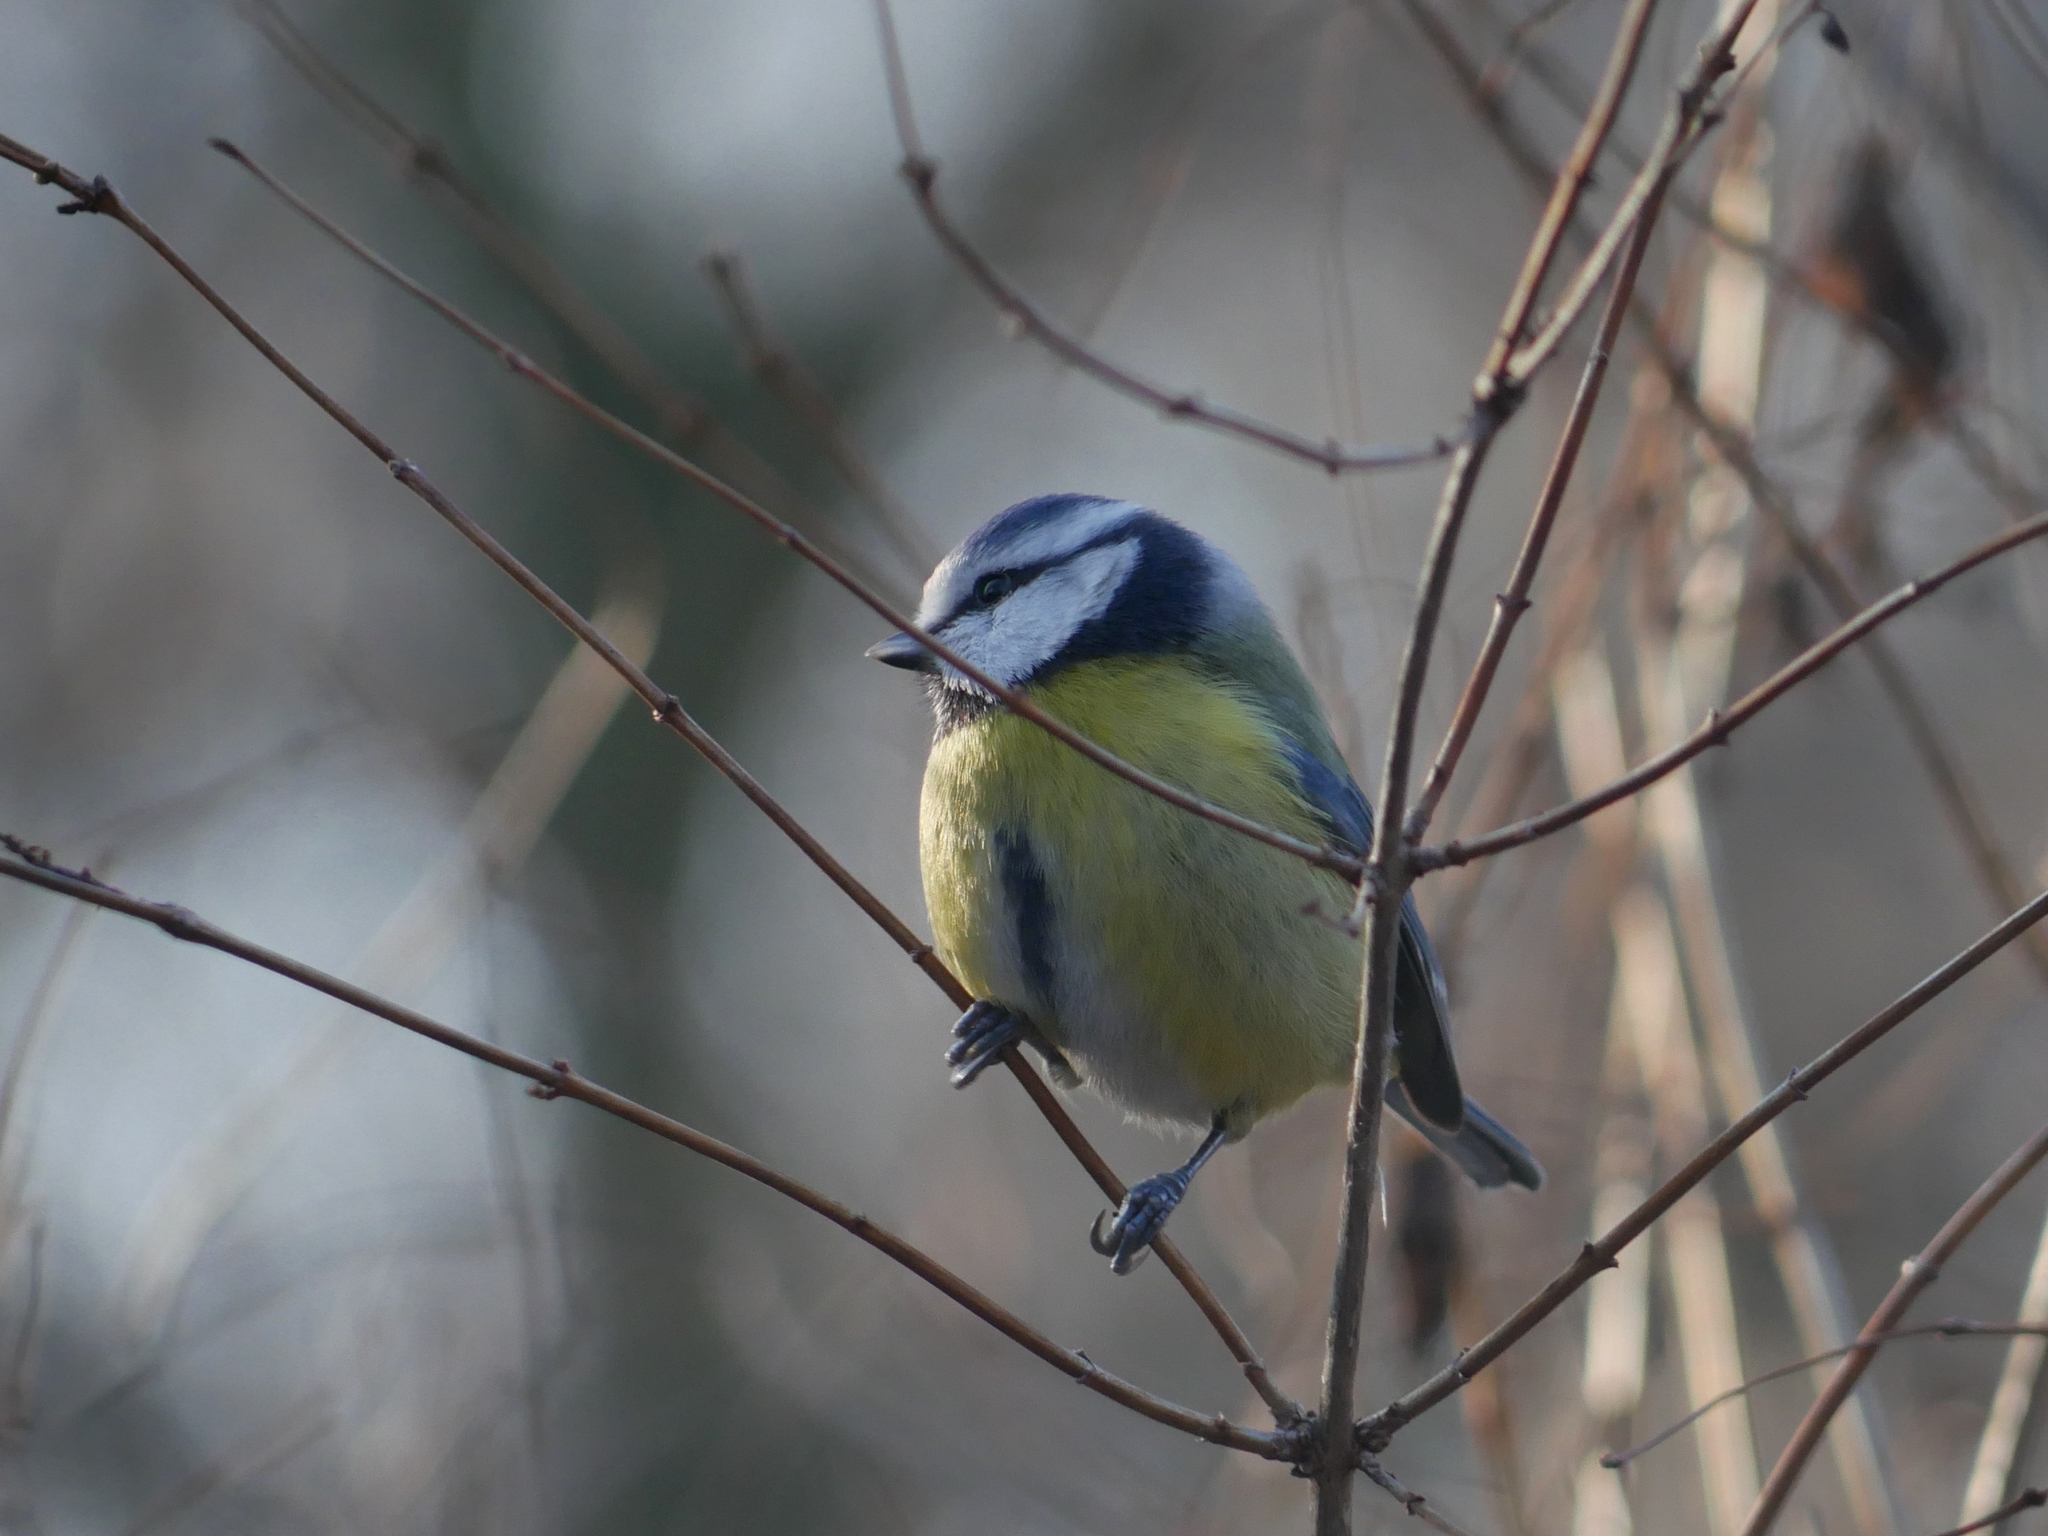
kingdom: Animalia
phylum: Chordata
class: Aves
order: Passeriformes
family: Paridae
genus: Cyanistes
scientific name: Cyanistes caeruleus
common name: Eurasian blue tit
